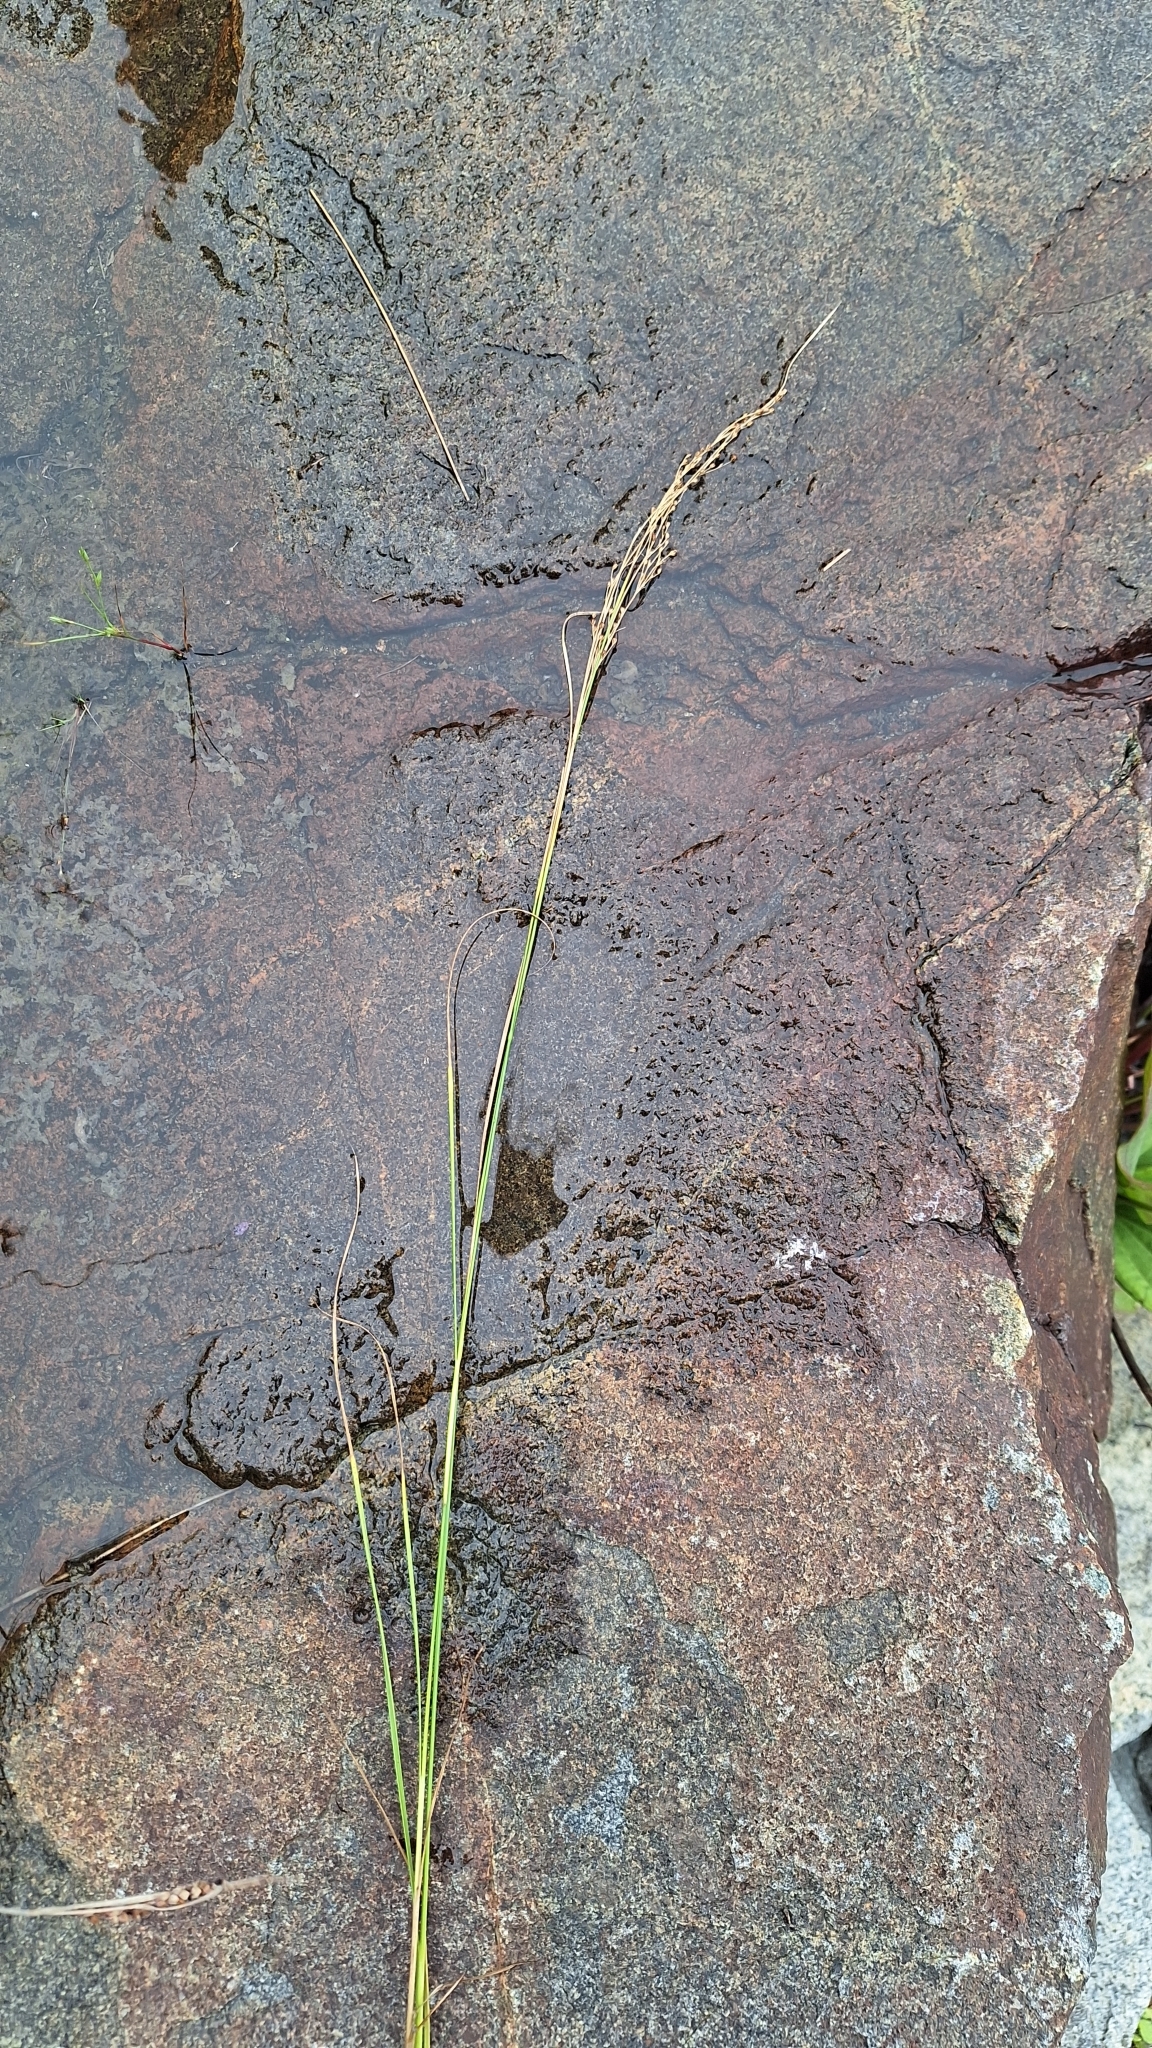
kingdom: Plantae
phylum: Tracheophyta
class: Liliopsida
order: Poales
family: Juncaceae
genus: Juncus
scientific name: Juncus gracillimus
